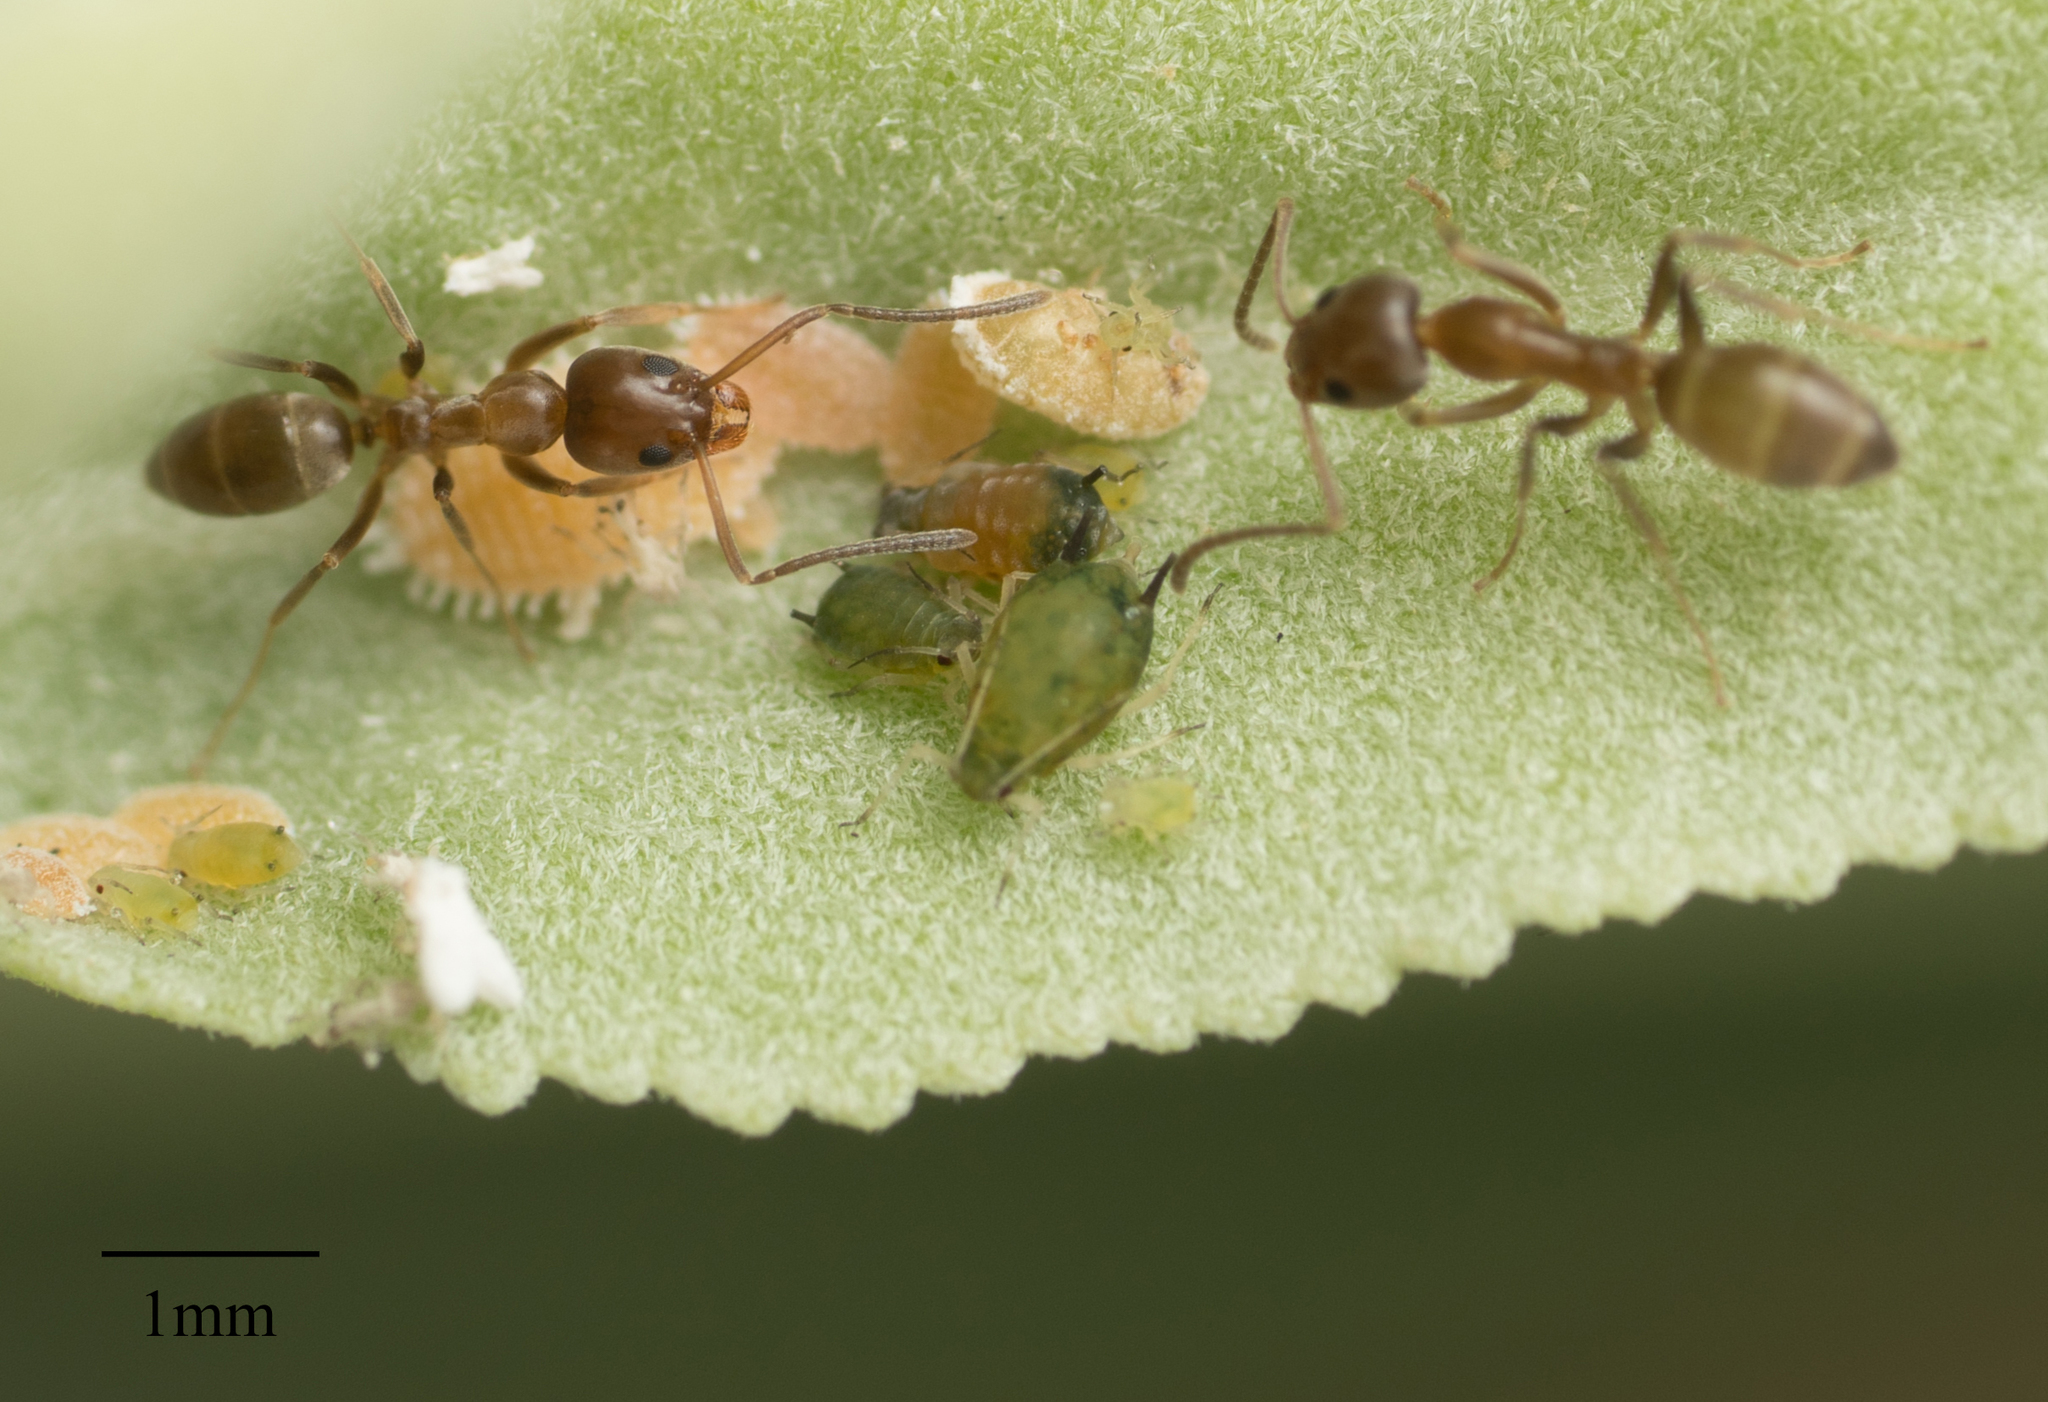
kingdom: Animalia
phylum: Arthropoda
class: Insecta
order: Hymenoptera
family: Formicidae
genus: Linepithema
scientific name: Linepithema humile
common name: Argentine ant
